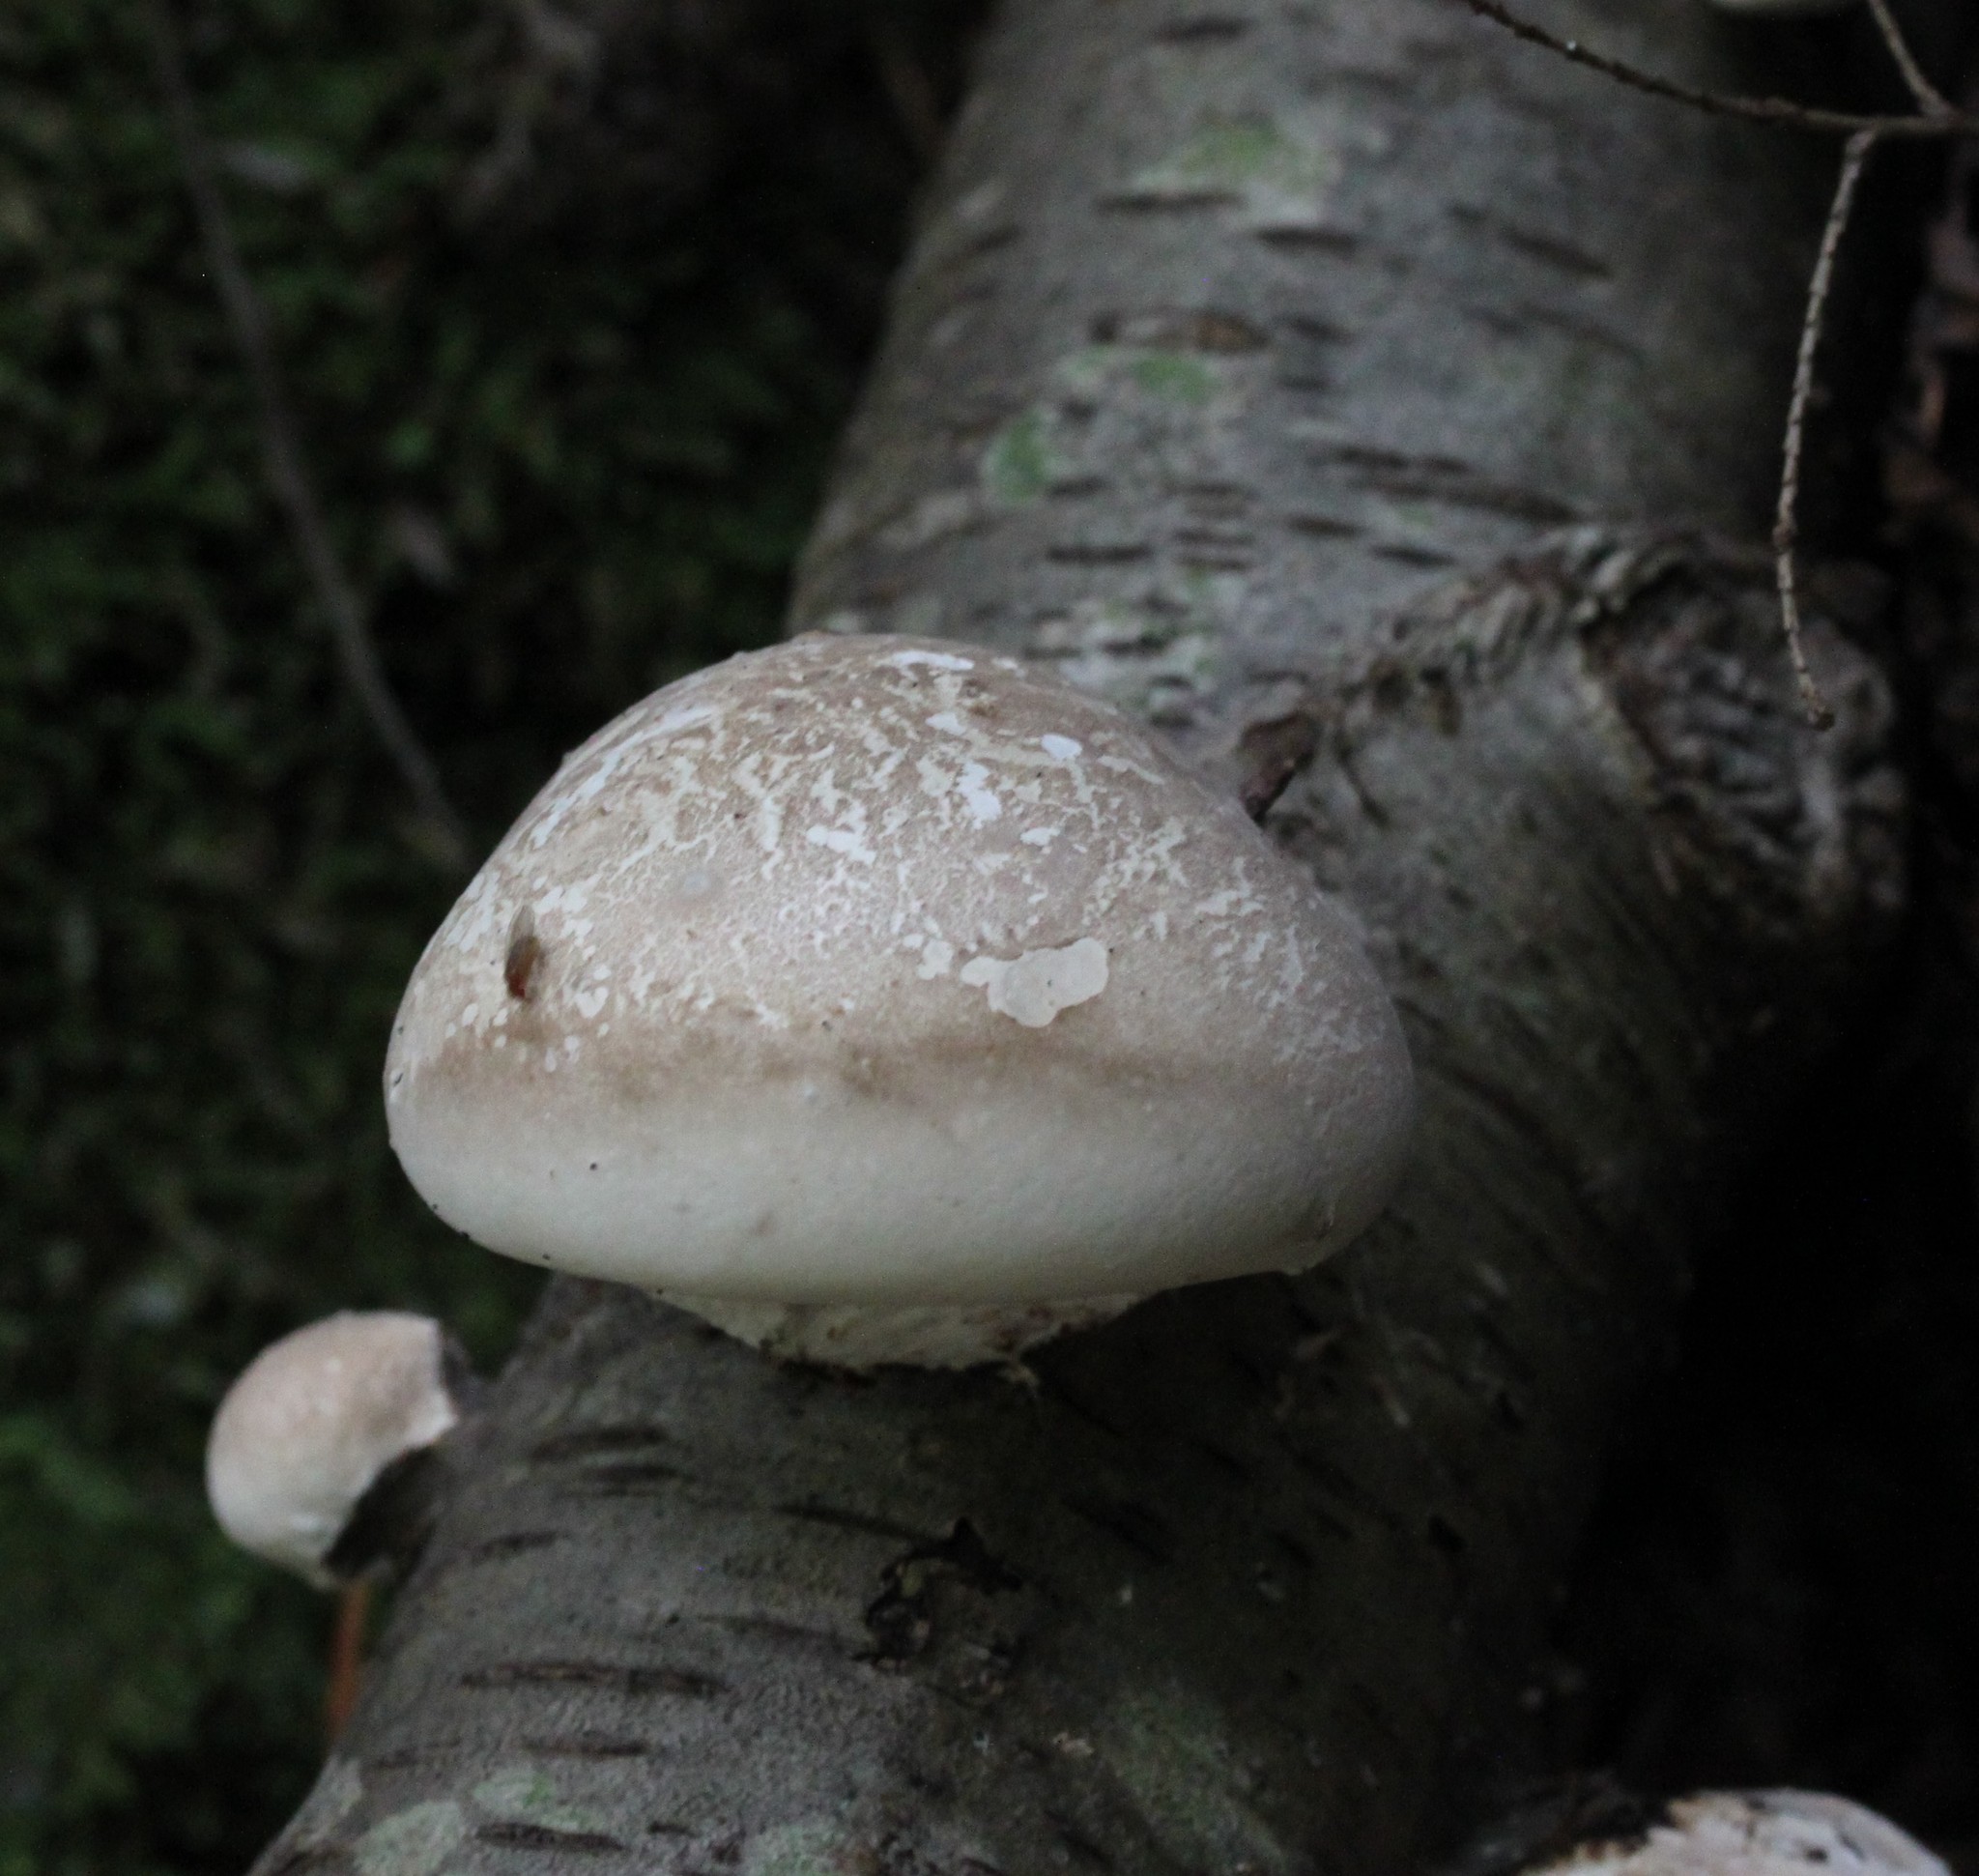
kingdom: Fungi
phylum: Basidiomycota
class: Agaricomycetes
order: Polyporales
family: Fomitopsidaceae
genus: Fomitopsis
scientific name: Fomitopsis betulina
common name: Birch polypore
